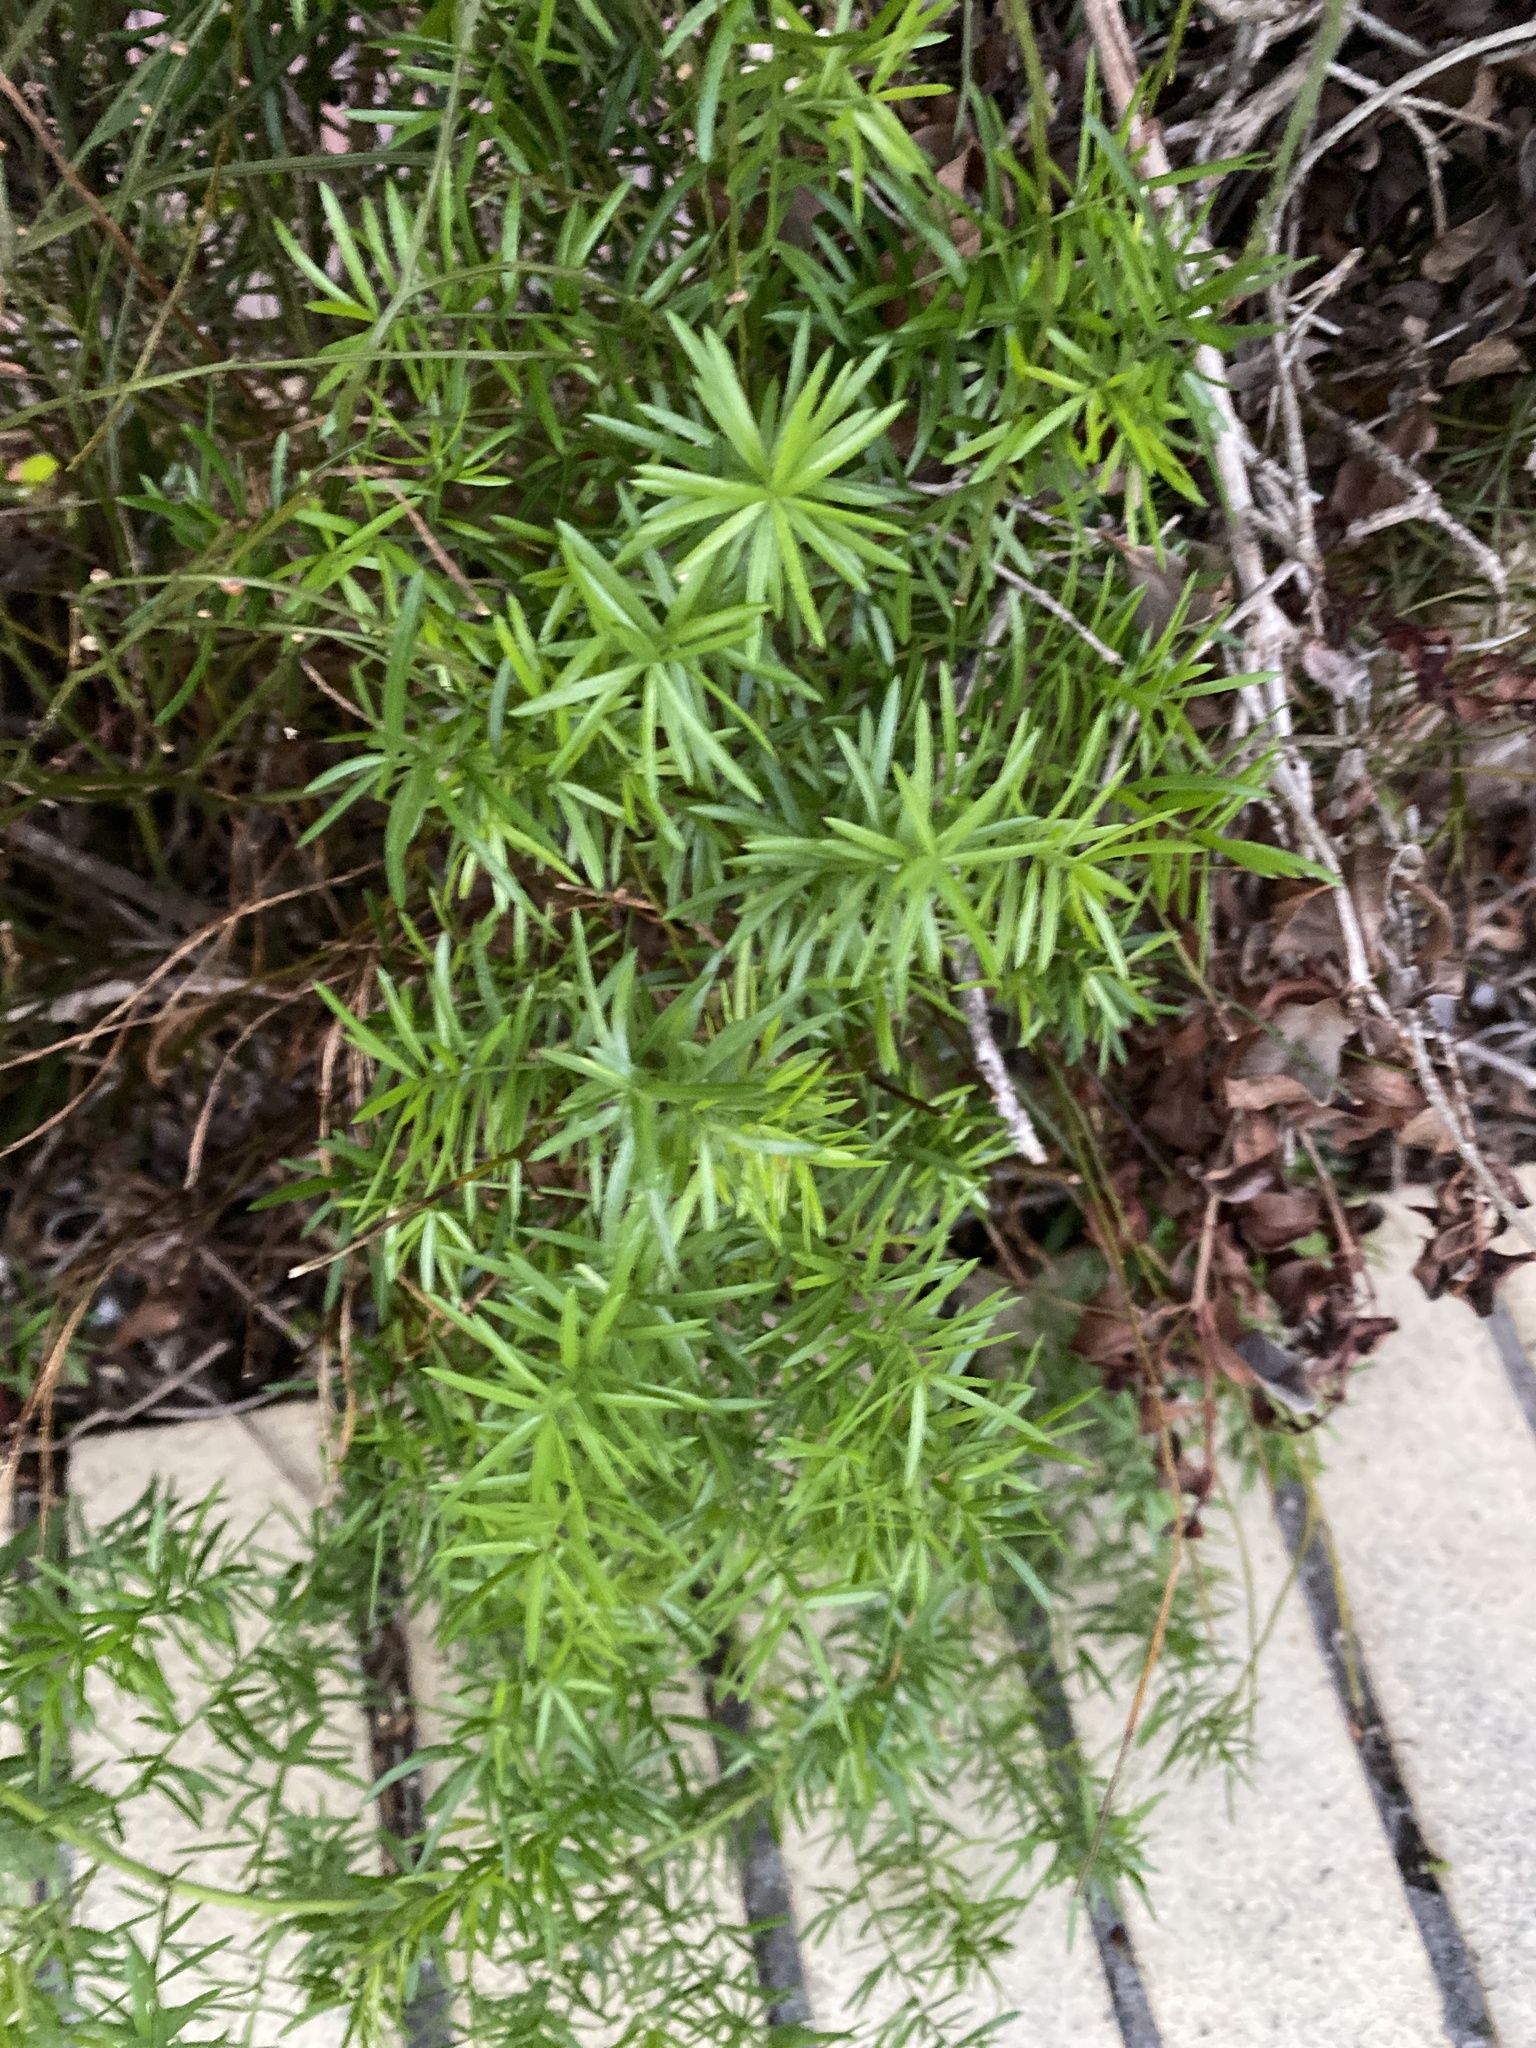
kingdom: Plantae
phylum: Tracheophyta
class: Liliopsida
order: Asparagales
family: Asparagaceae
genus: Asparagus
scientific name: Asparagus aethiopicus
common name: Sprenger's asparagus fern
